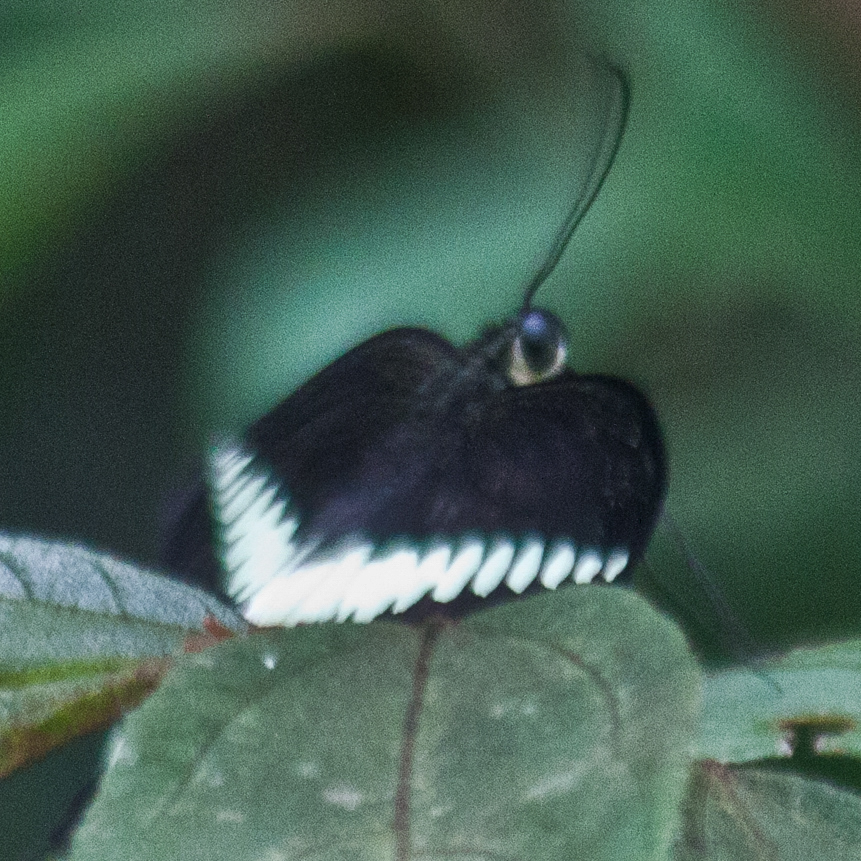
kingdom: Animalia
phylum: Arthropoda
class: Insecta
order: Lepidoptera
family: Papilionidae
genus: Papilio
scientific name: Papilio demolion
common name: Banded swallowtail
